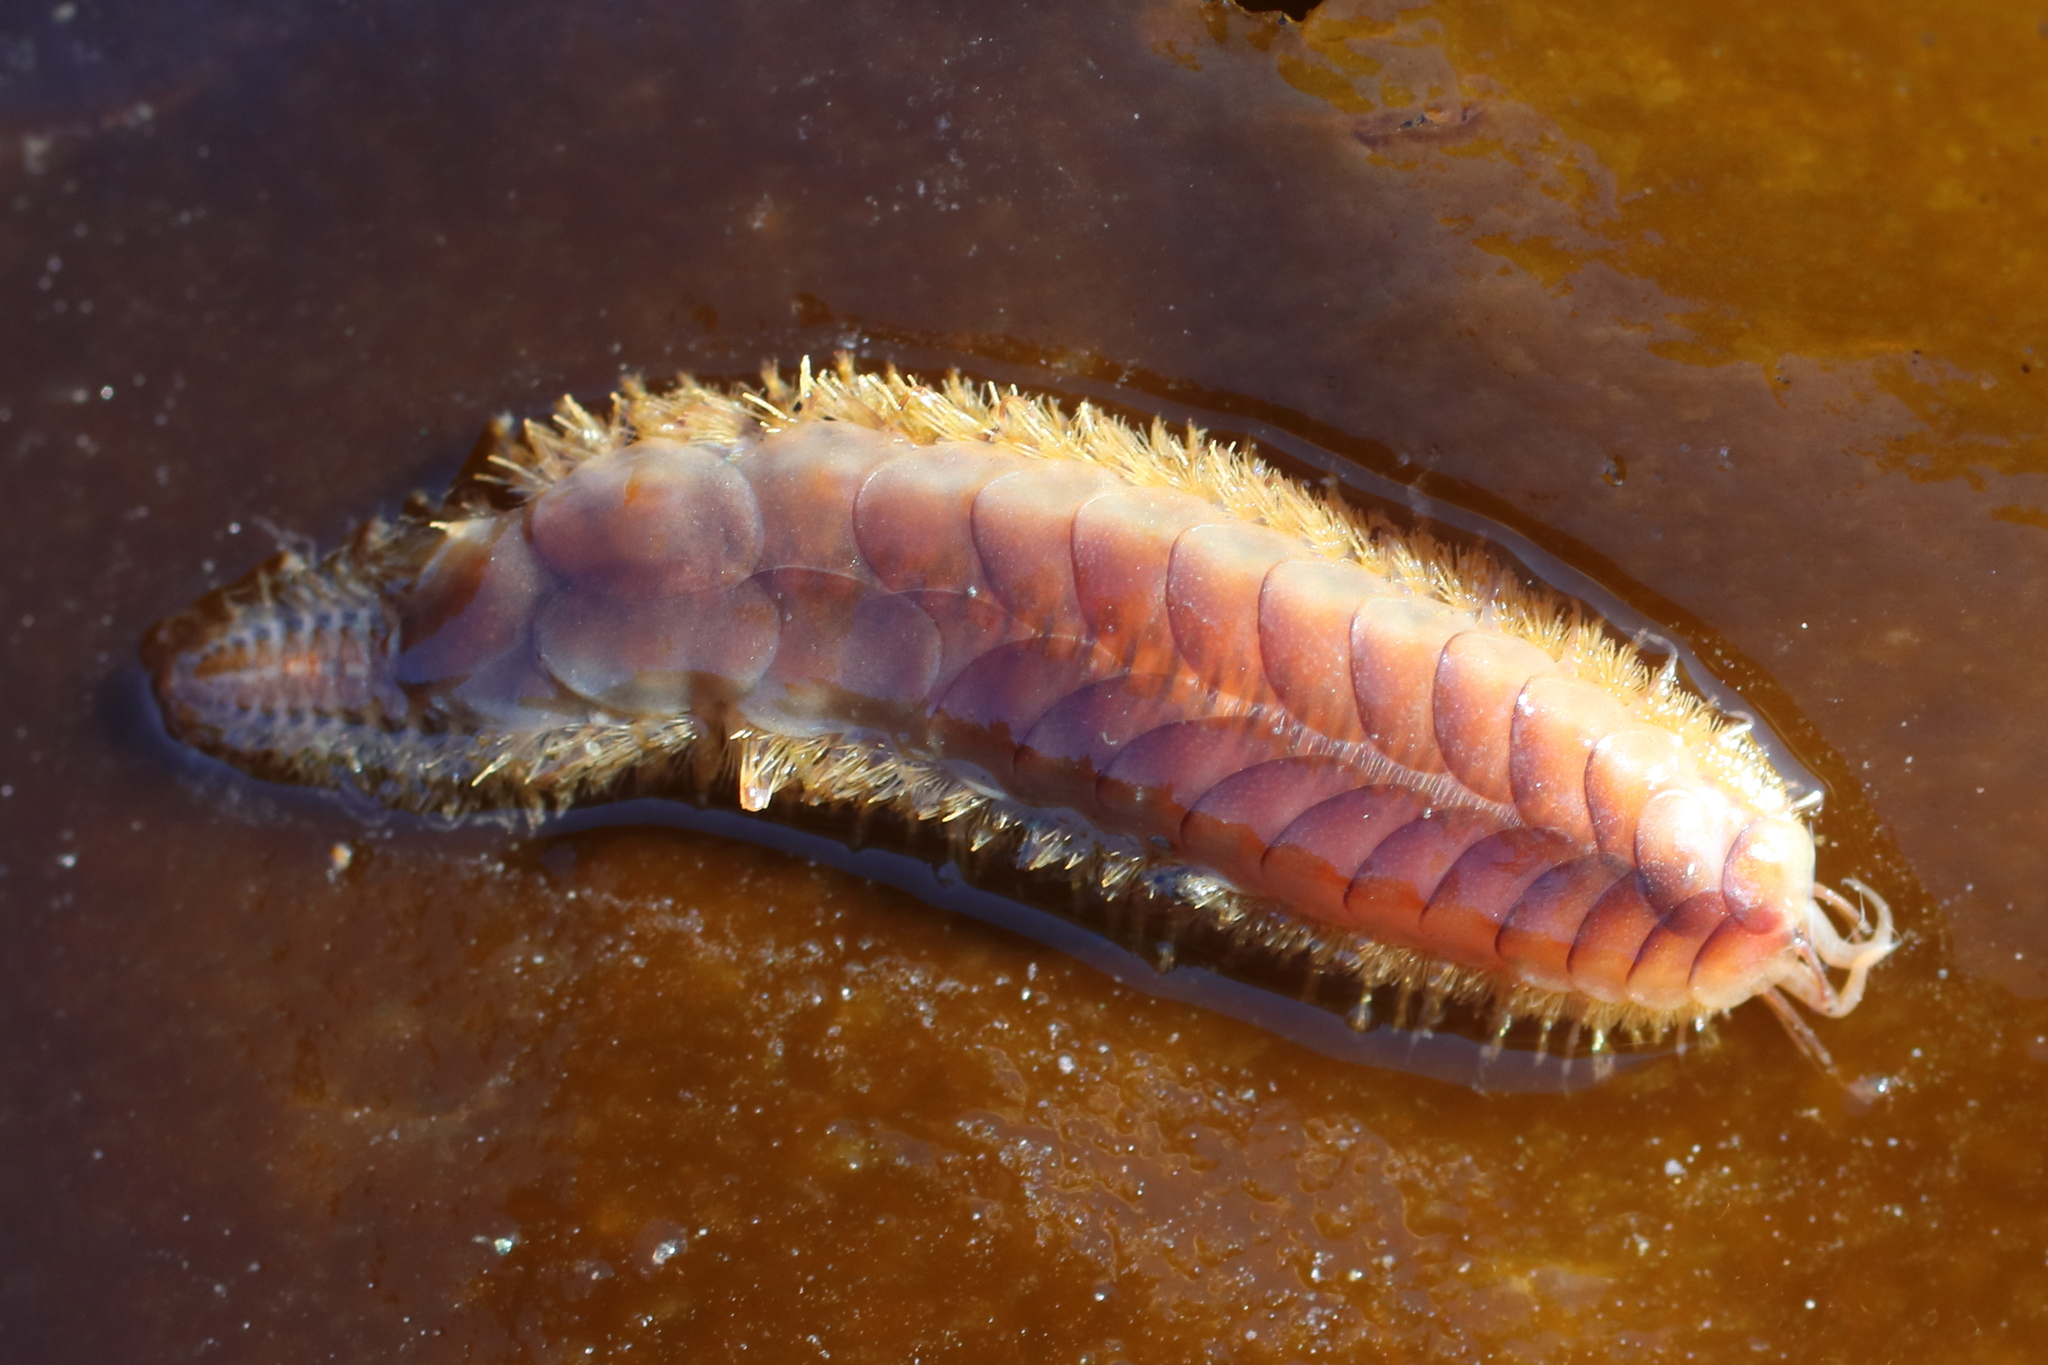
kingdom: Animalia
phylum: Annelida
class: Polychaeta
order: Phyllodocida
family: Polynoidae
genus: Hermadionella
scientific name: Hermadionella truncata
